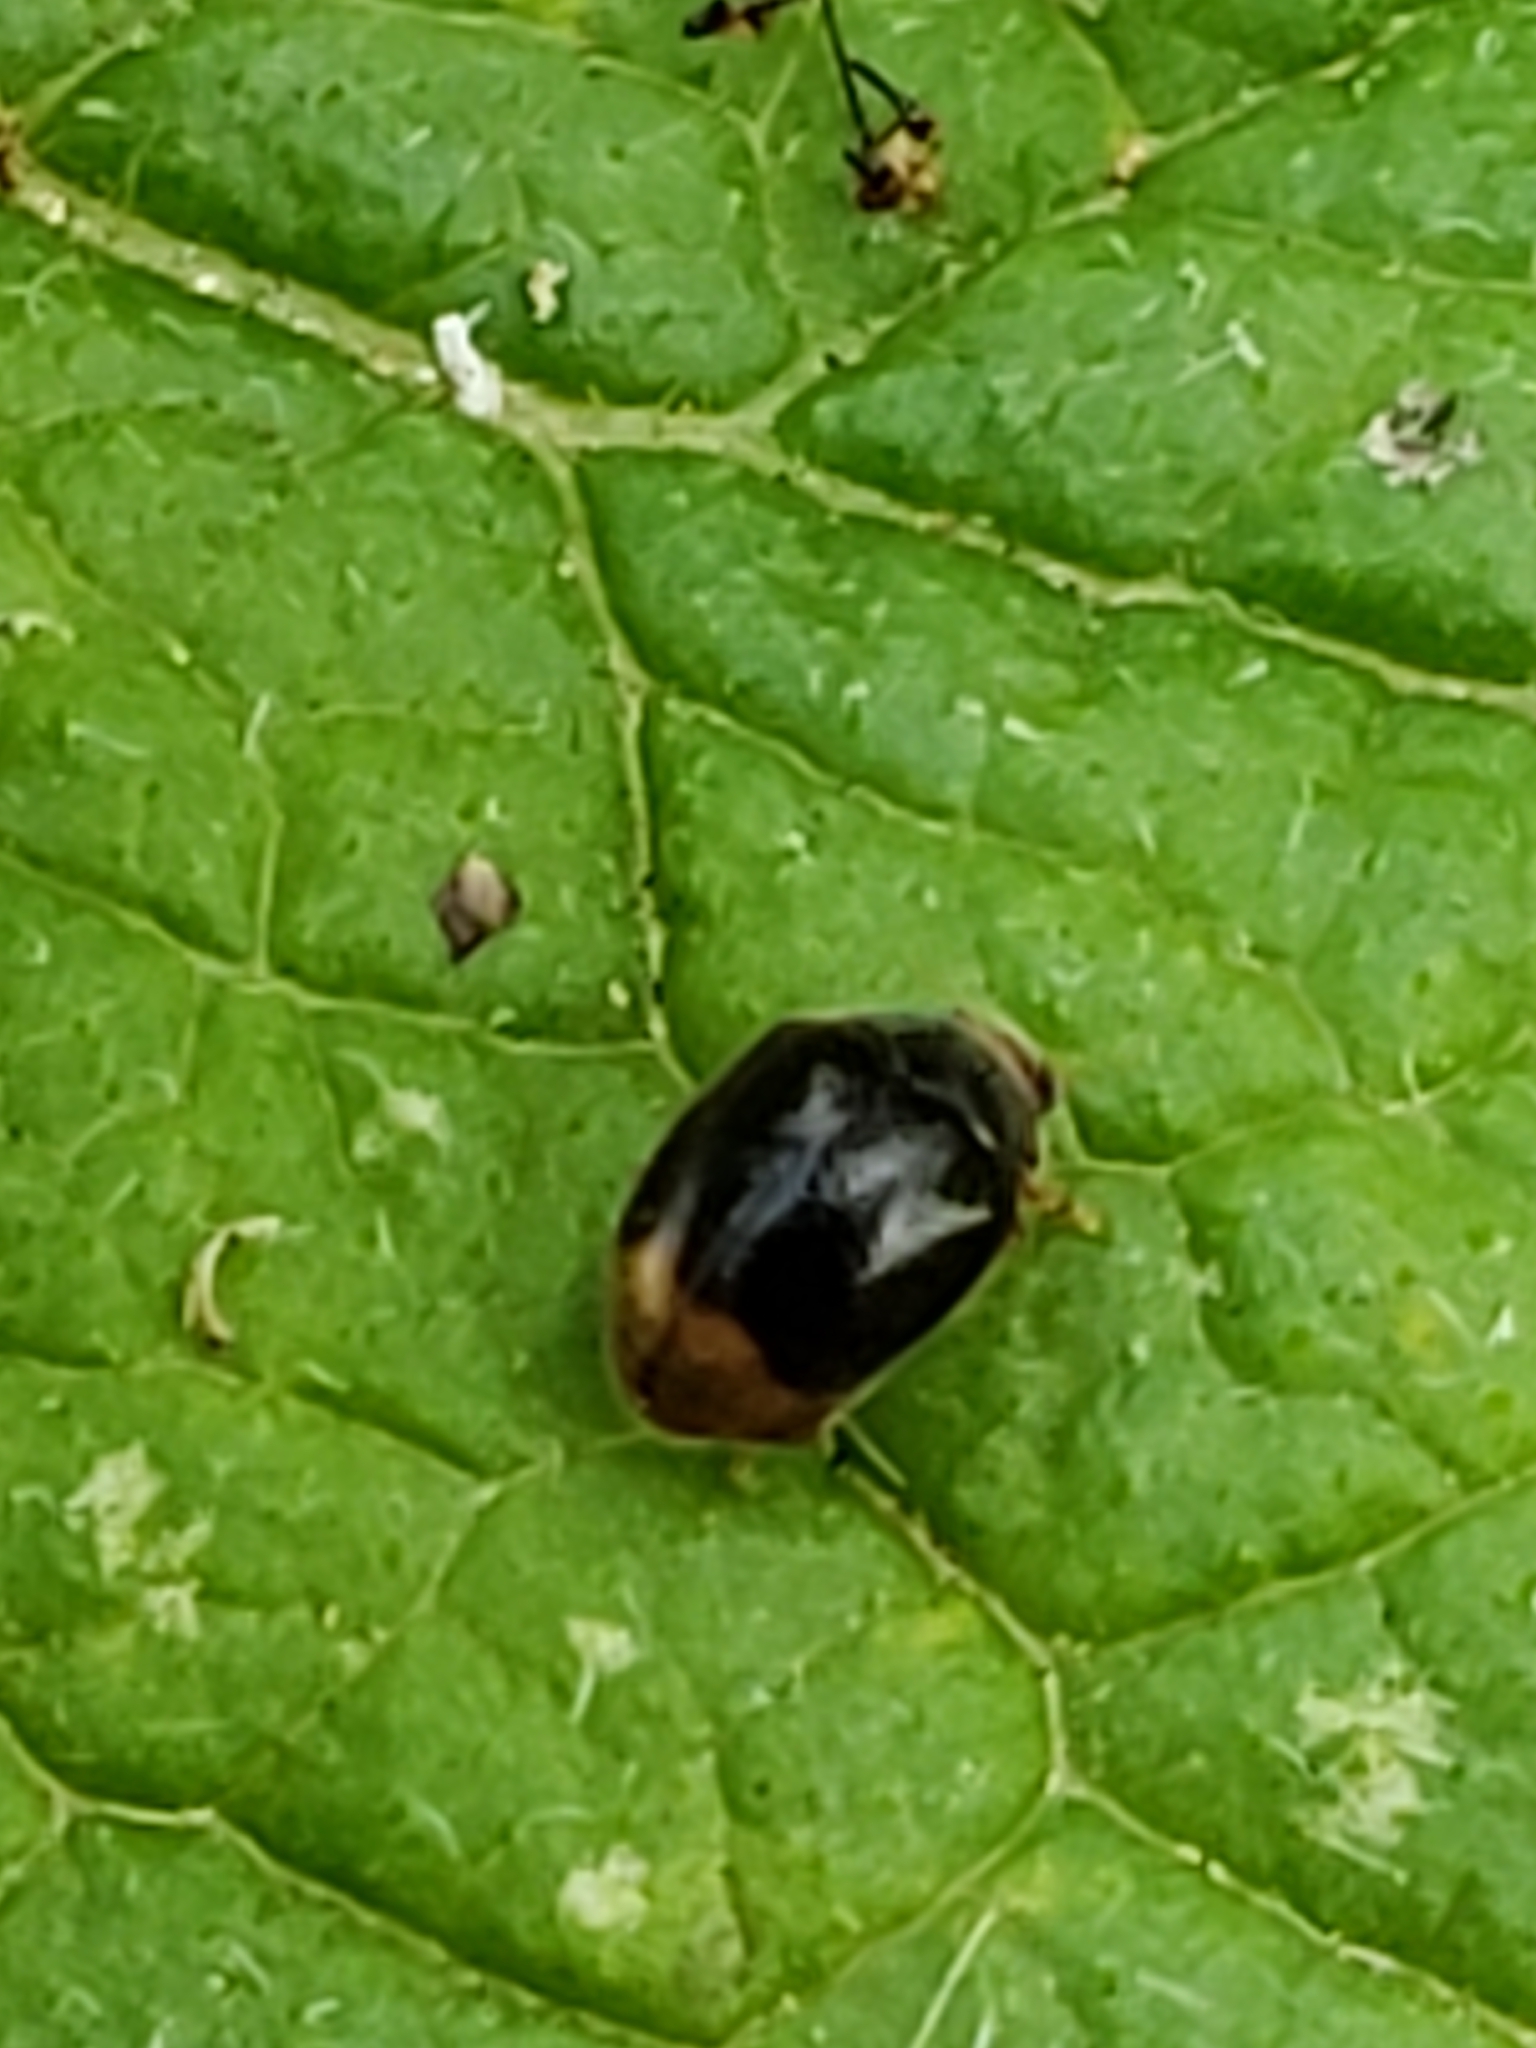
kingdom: Animalia
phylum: Arthropoda
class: Insecta
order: Coleoptera
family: Coccinellidae
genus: Diomus
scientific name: Diomus terminatus
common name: Firefly duskyling
